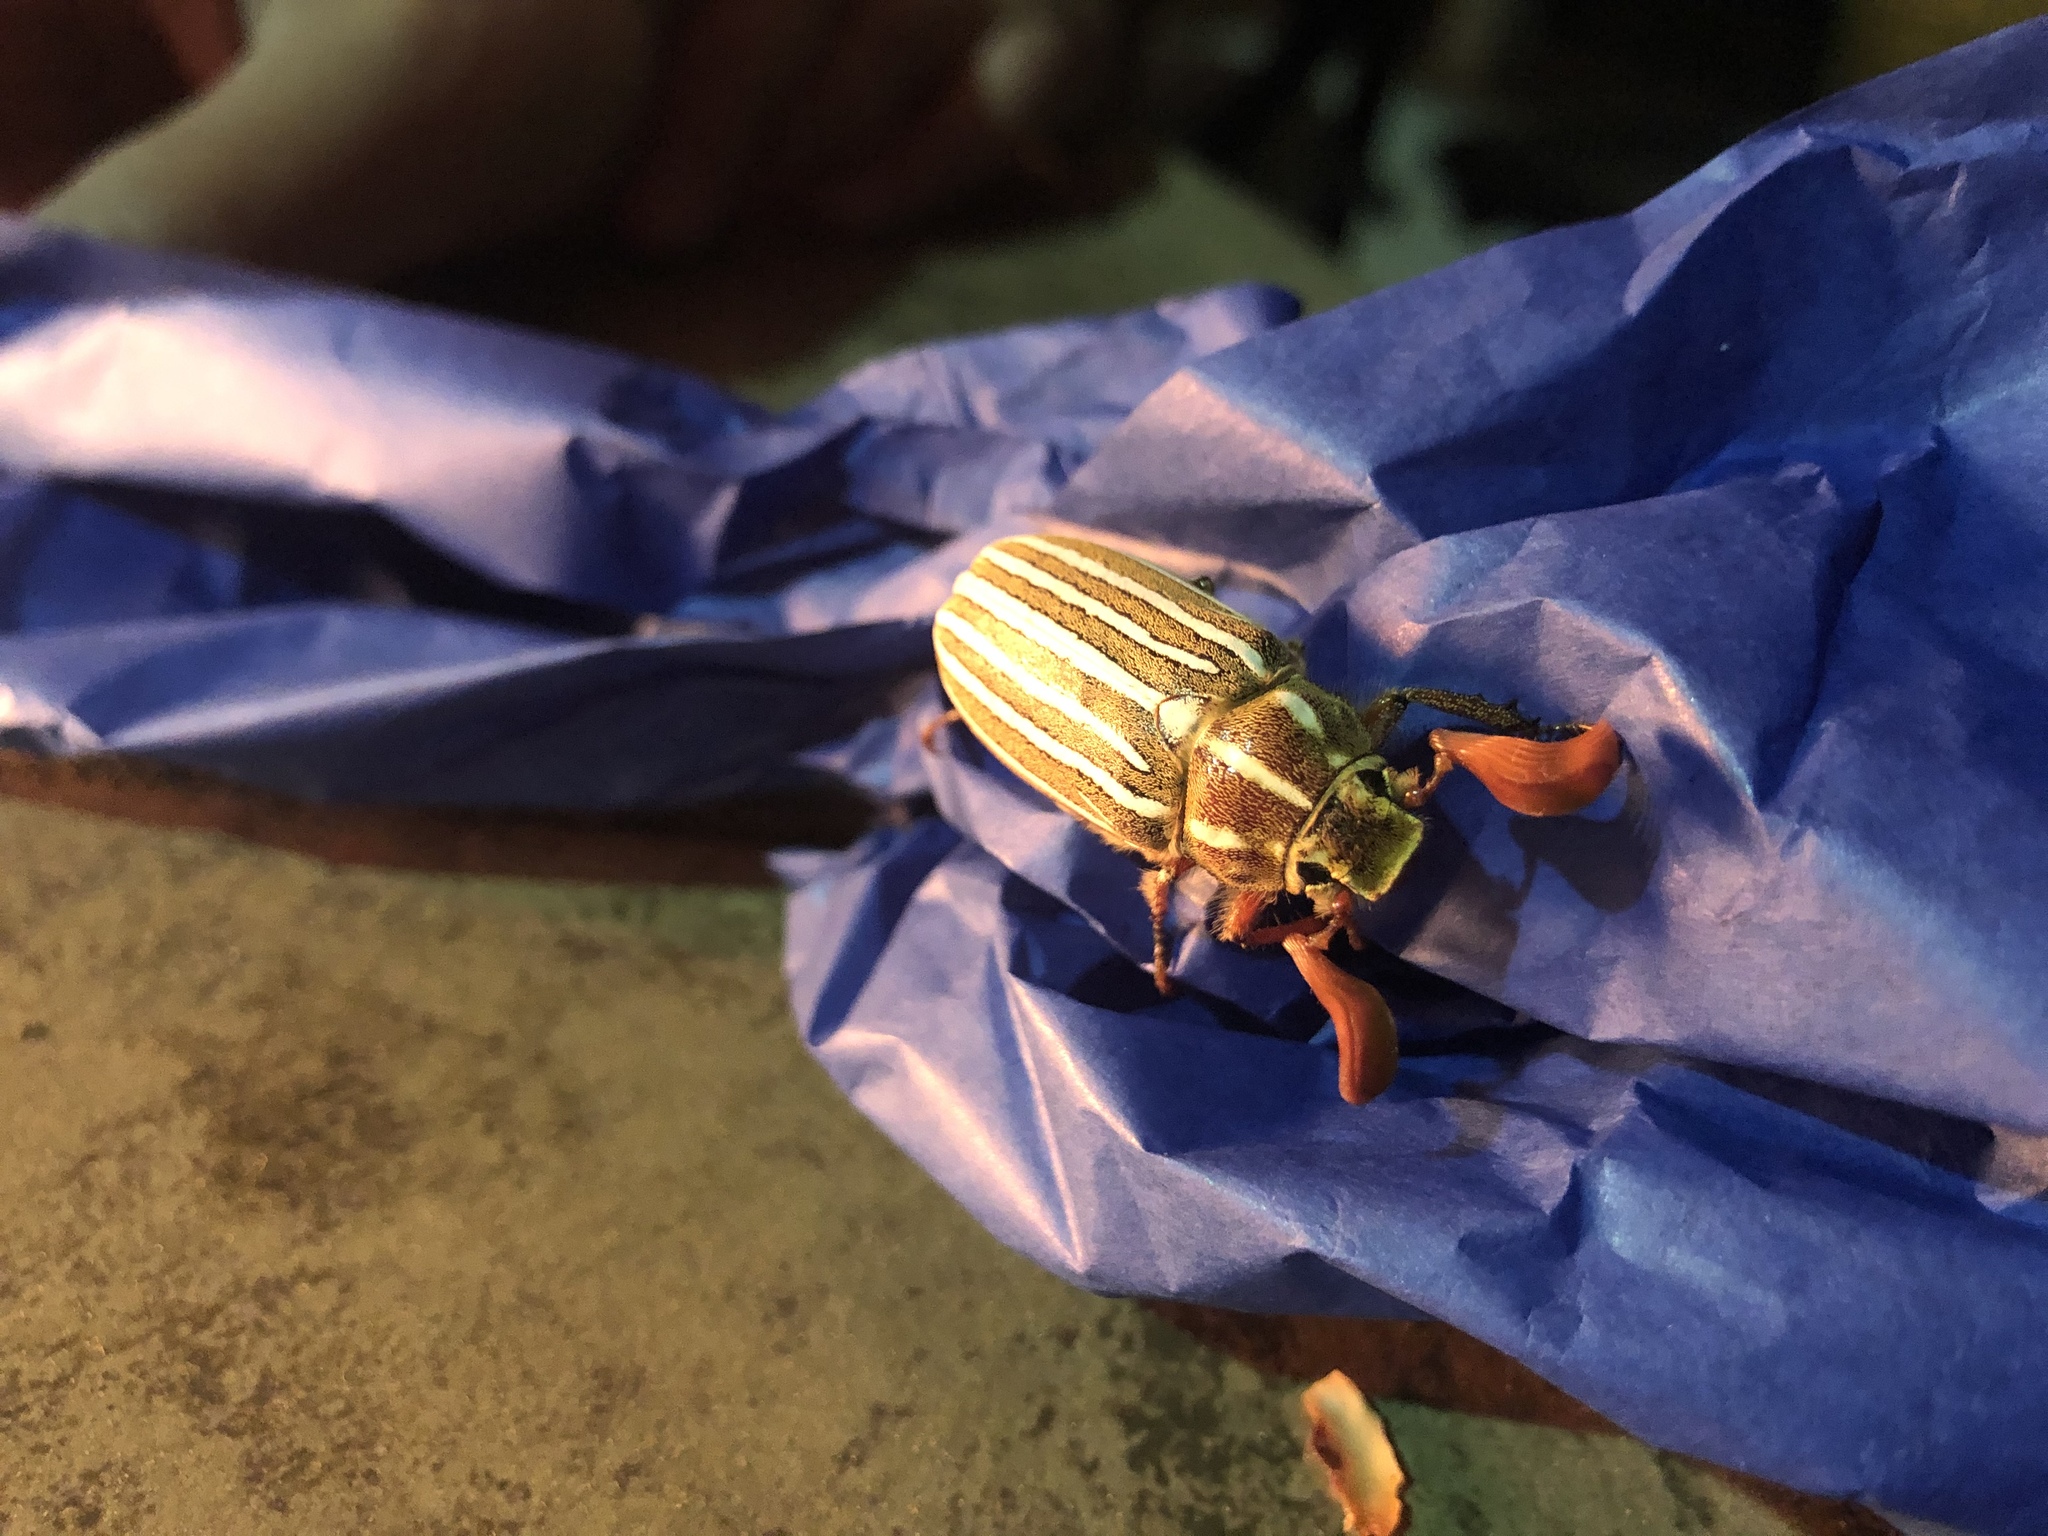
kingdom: Animalia
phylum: Arthropoda
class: Insecta
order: Coleoptera
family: Scarabaeidae
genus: Polyphylla
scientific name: Polyphylla decemlineata
